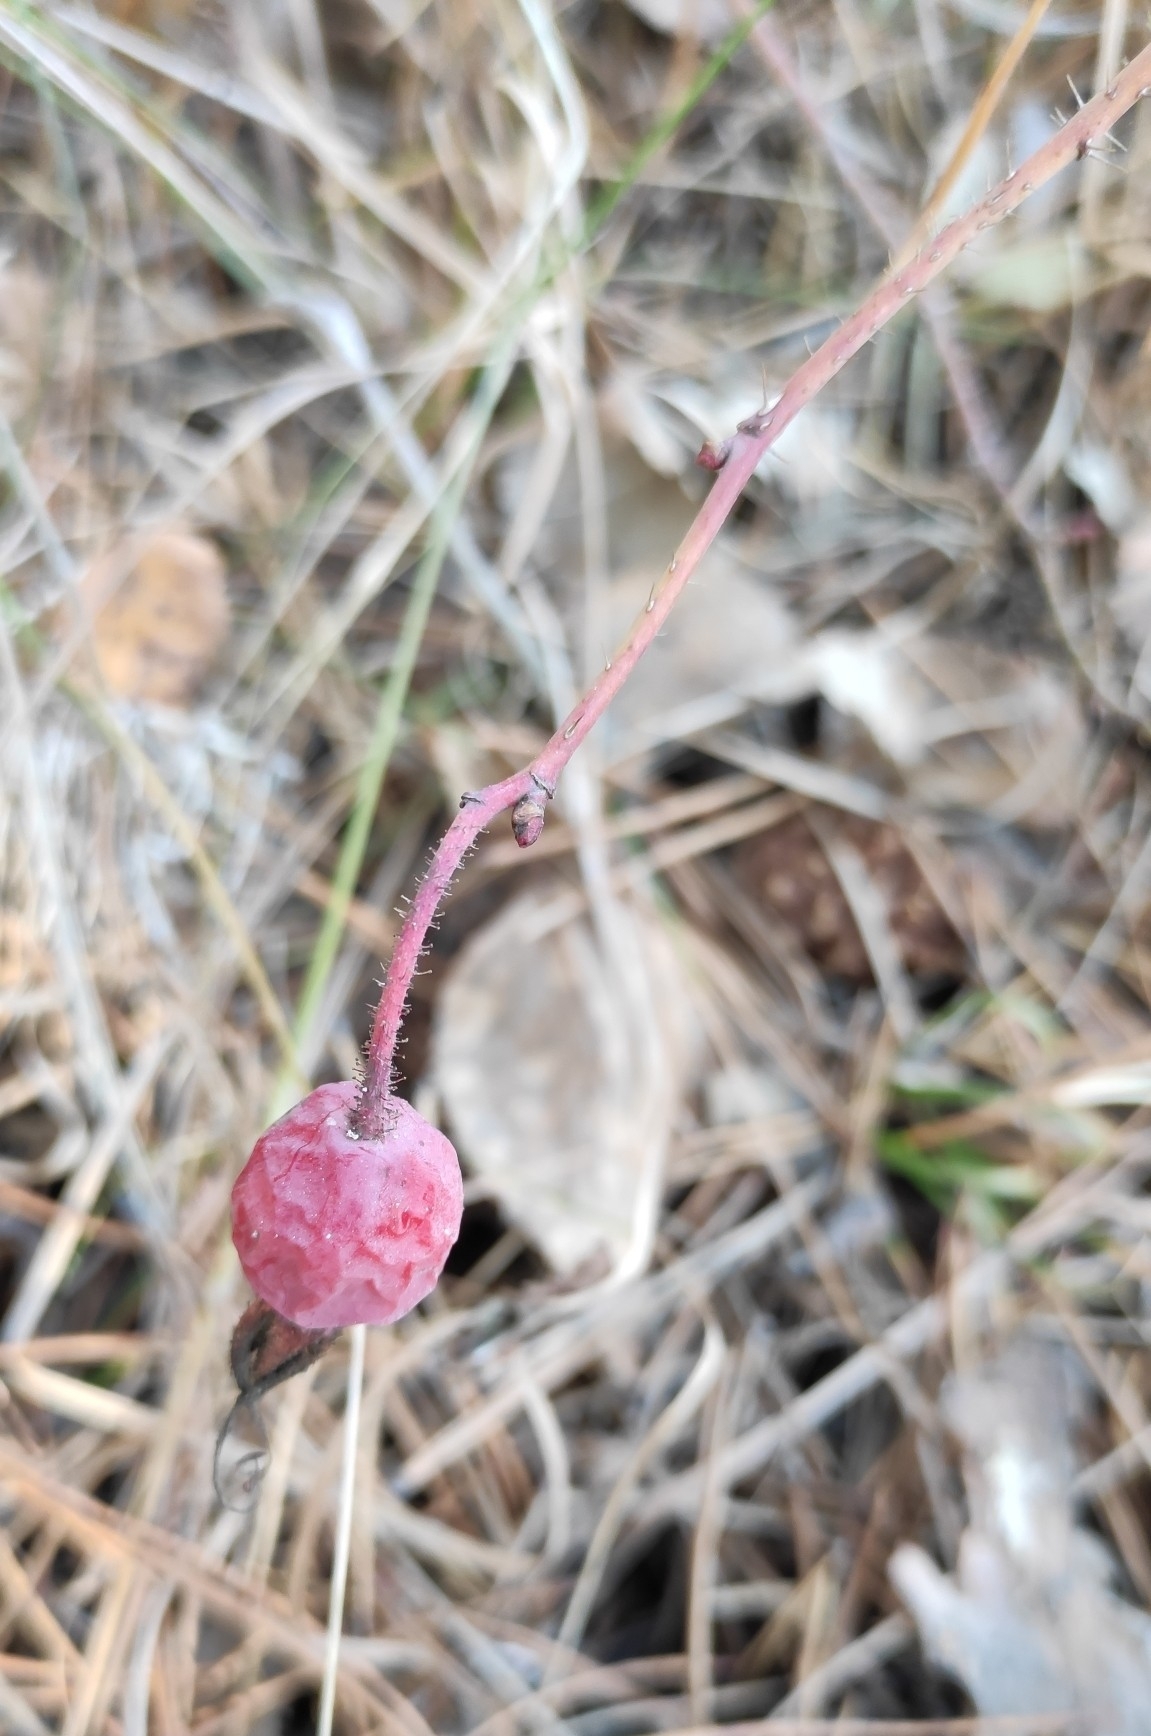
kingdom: Plantae
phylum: Tracheophyta
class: Magnoliopsida
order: Rosales
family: Rosaceae
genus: Rosa
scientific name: Rosa acicularis
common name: Prickly rose
